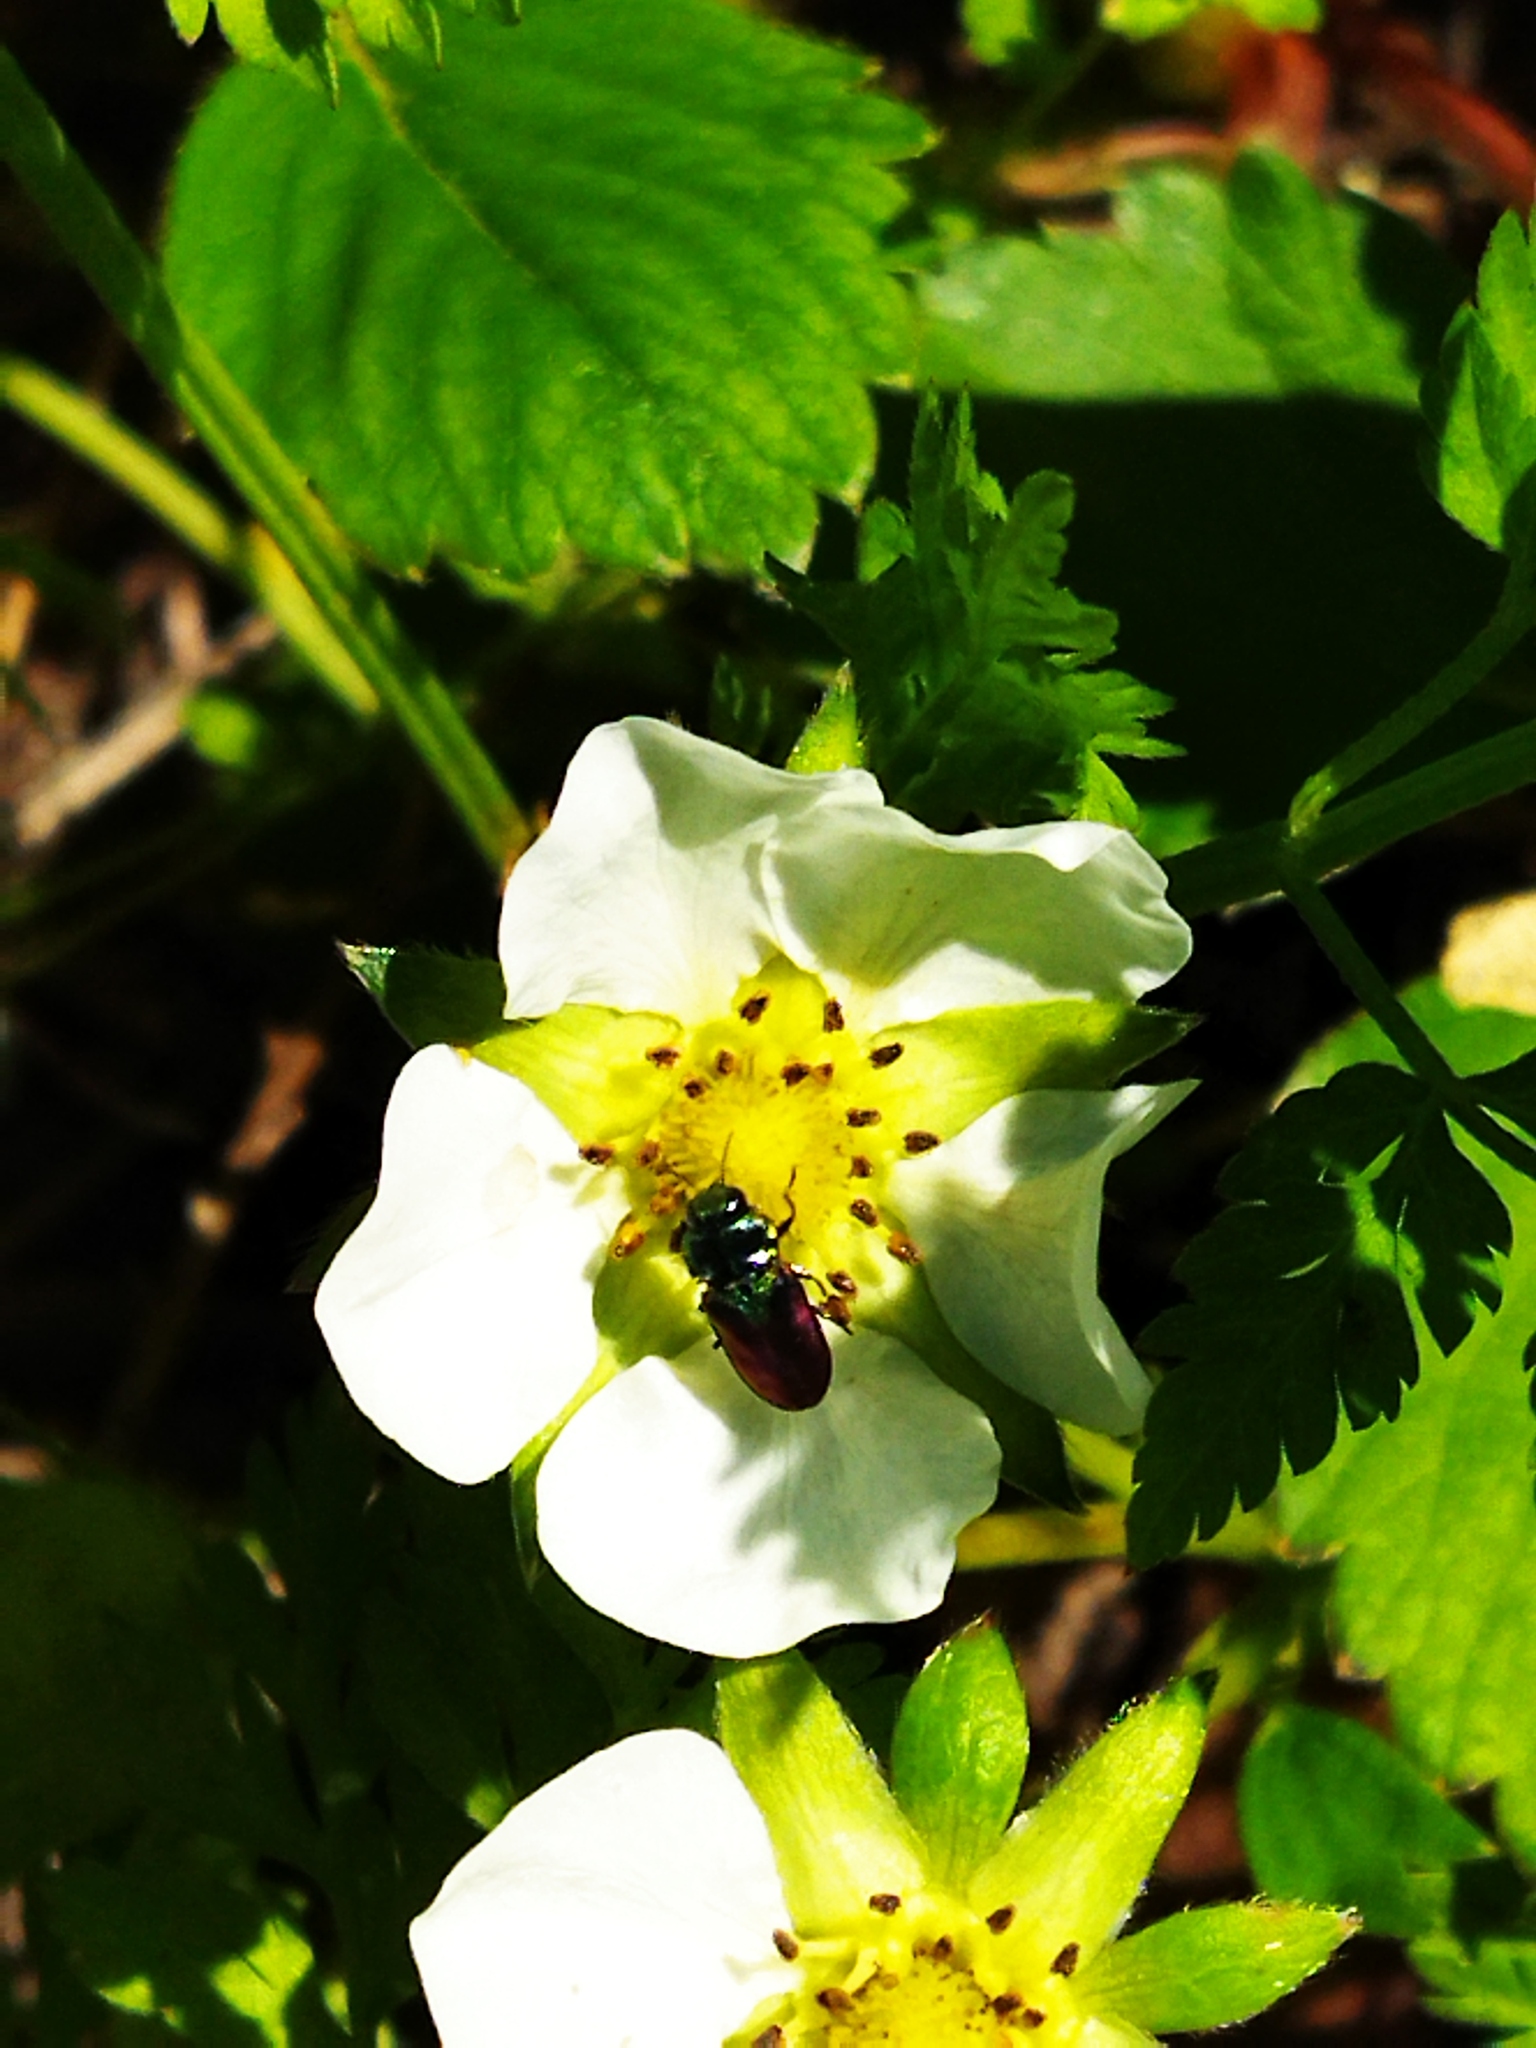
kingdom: Animalia
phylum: Arthropoda
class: Insecta
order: Coleoptera
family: Buprestidae
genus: Anthaxia
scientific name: Anthaxia bicolor
